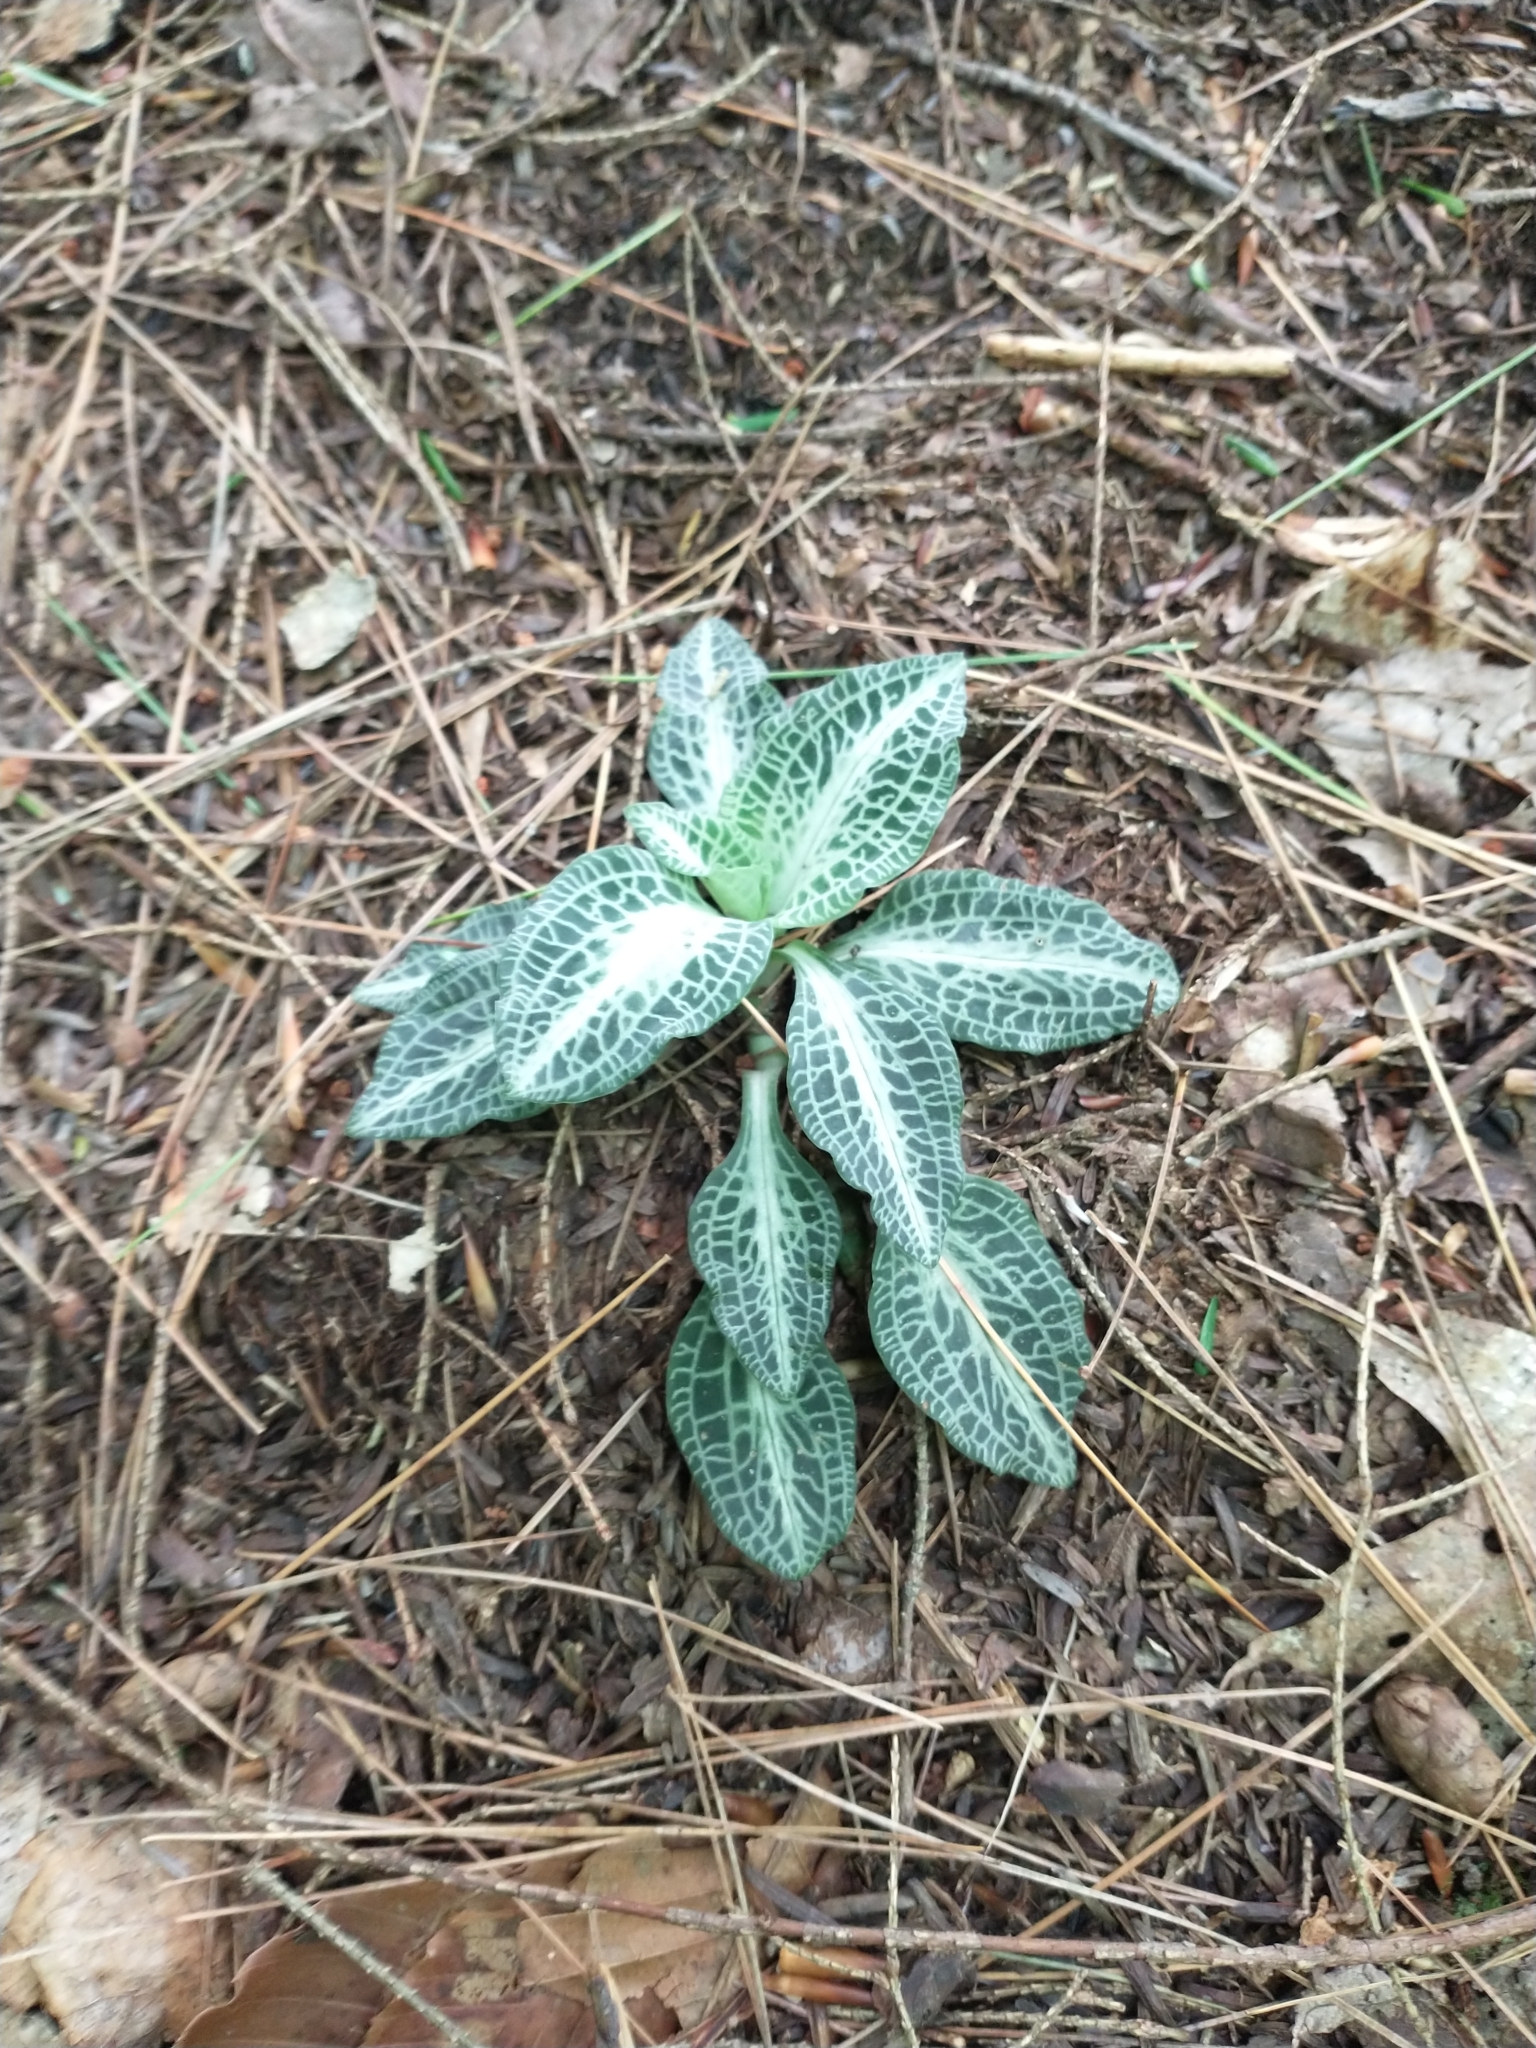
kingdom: Plantae
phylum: Tracheophyta
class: Liliopsida
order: Asparagales
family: Orchidaceae
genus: Goodyera
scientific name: Goodyera pubescens
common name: Downy rattlesnake-plantain
